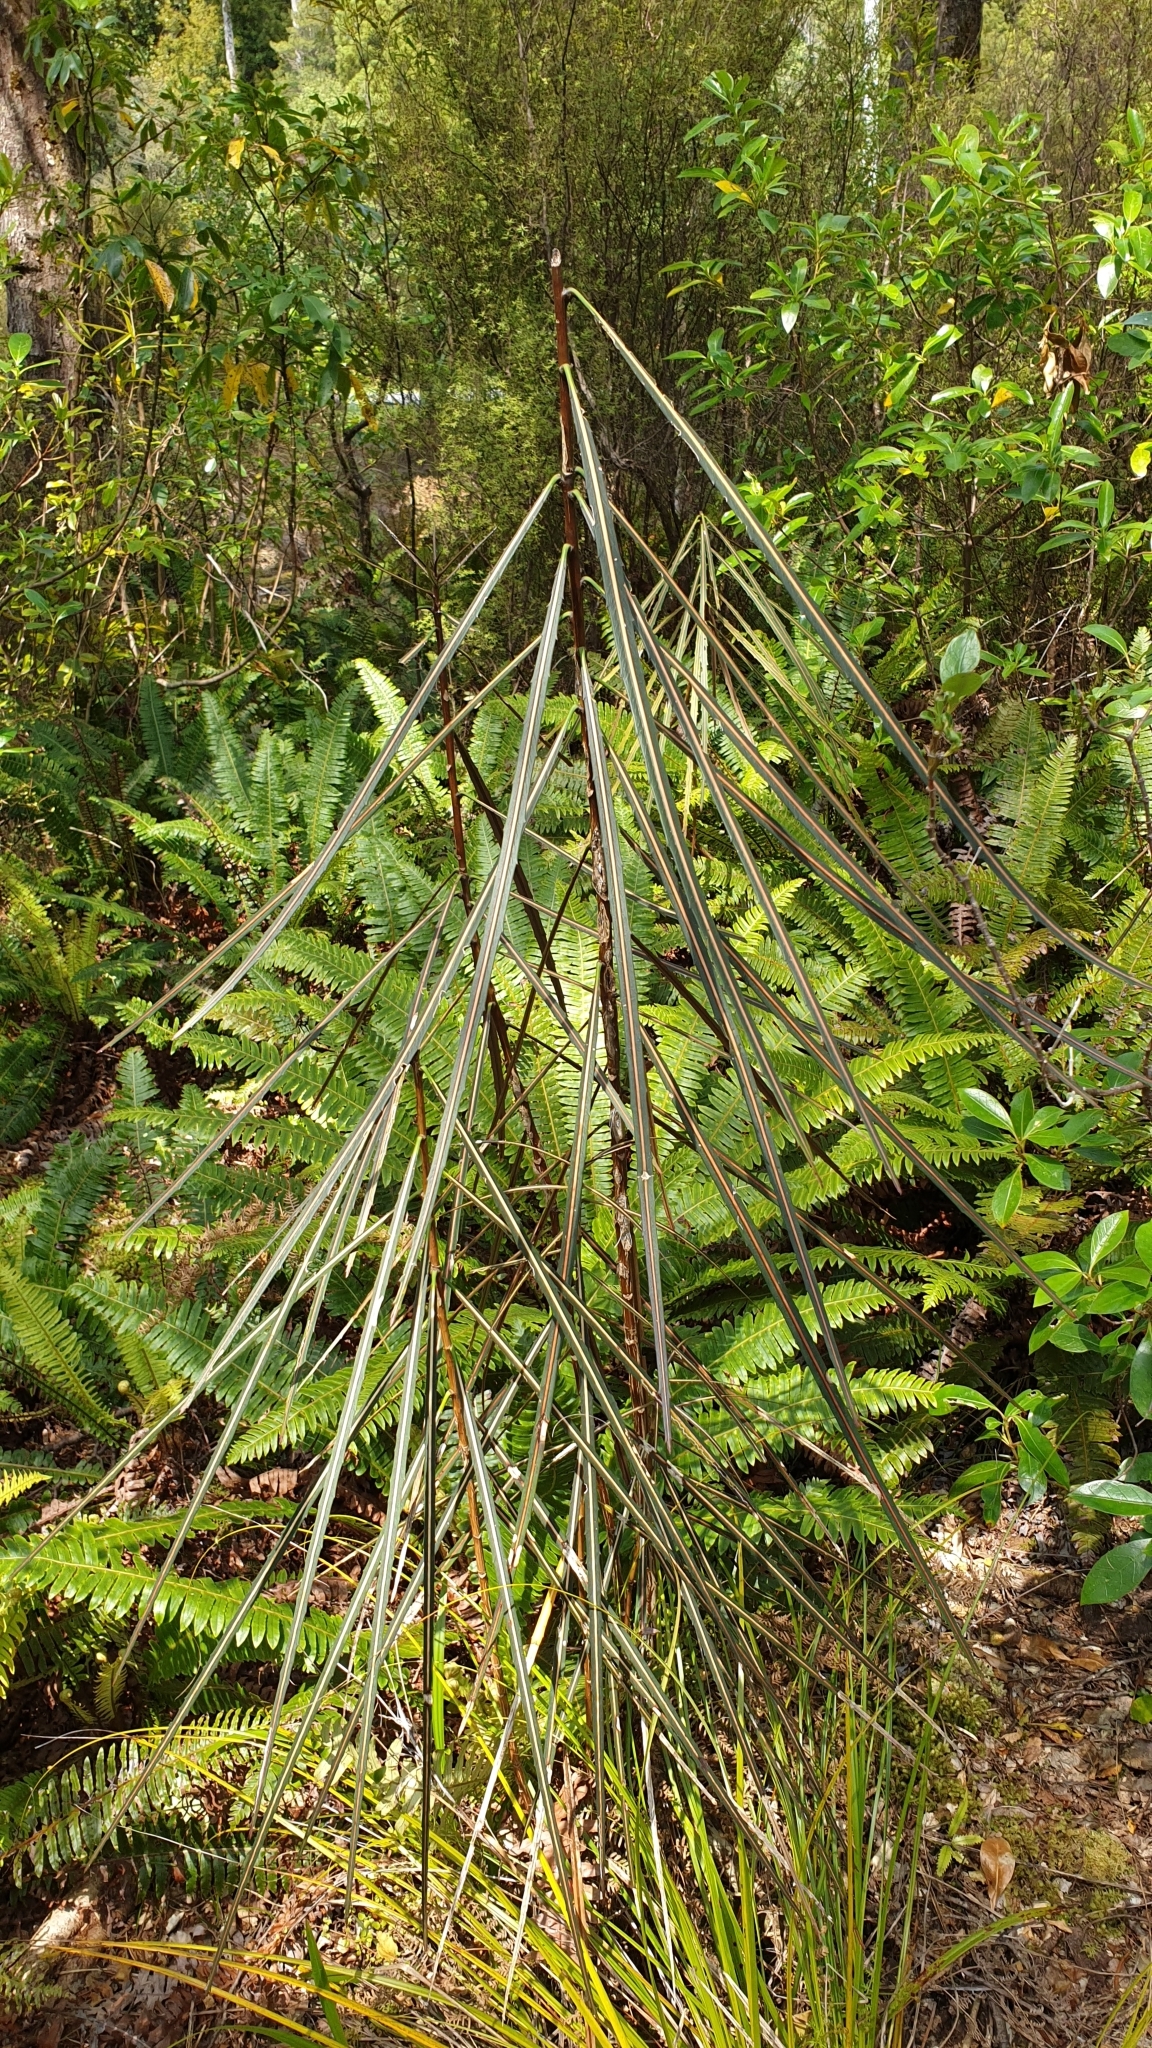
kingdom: Plantae
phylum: Tracheophyta
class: Magnoliopsida
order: Apiales
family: Araliaceae
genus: Pseudopanax
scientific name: Pseudopanax crassifolius
